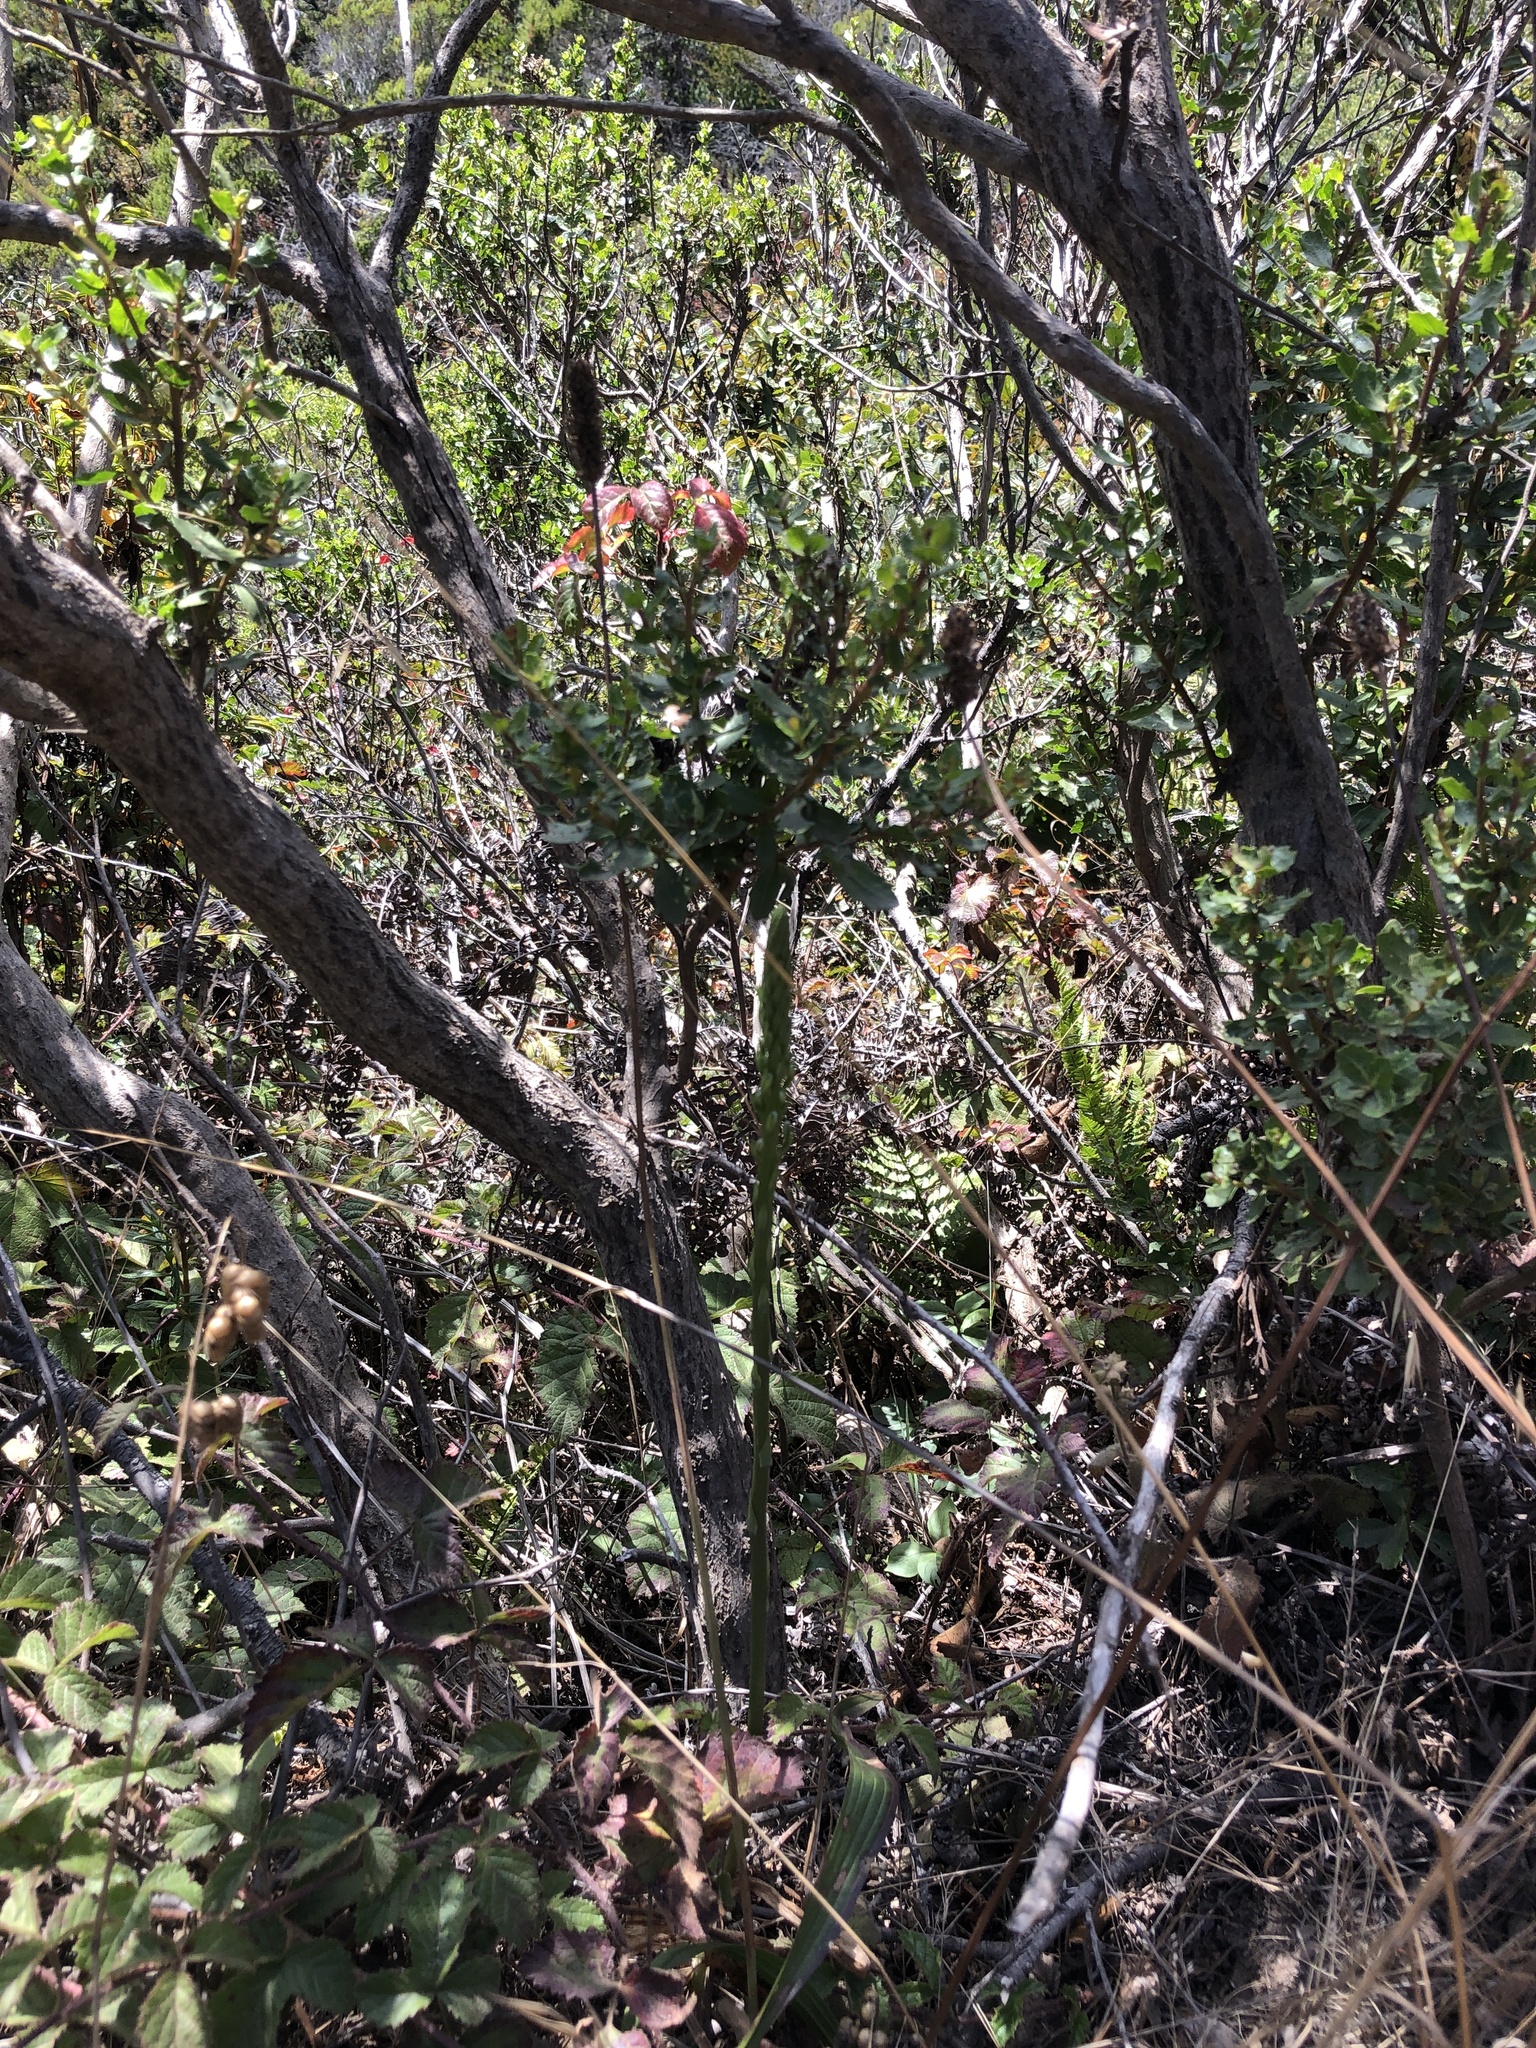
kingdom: Plantae
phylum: Tracheophyta
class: Liliopsida
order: Asparagales
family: Orchidaceae
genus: Platanthera
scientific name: Platanthera elegans
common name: Coast piperia
